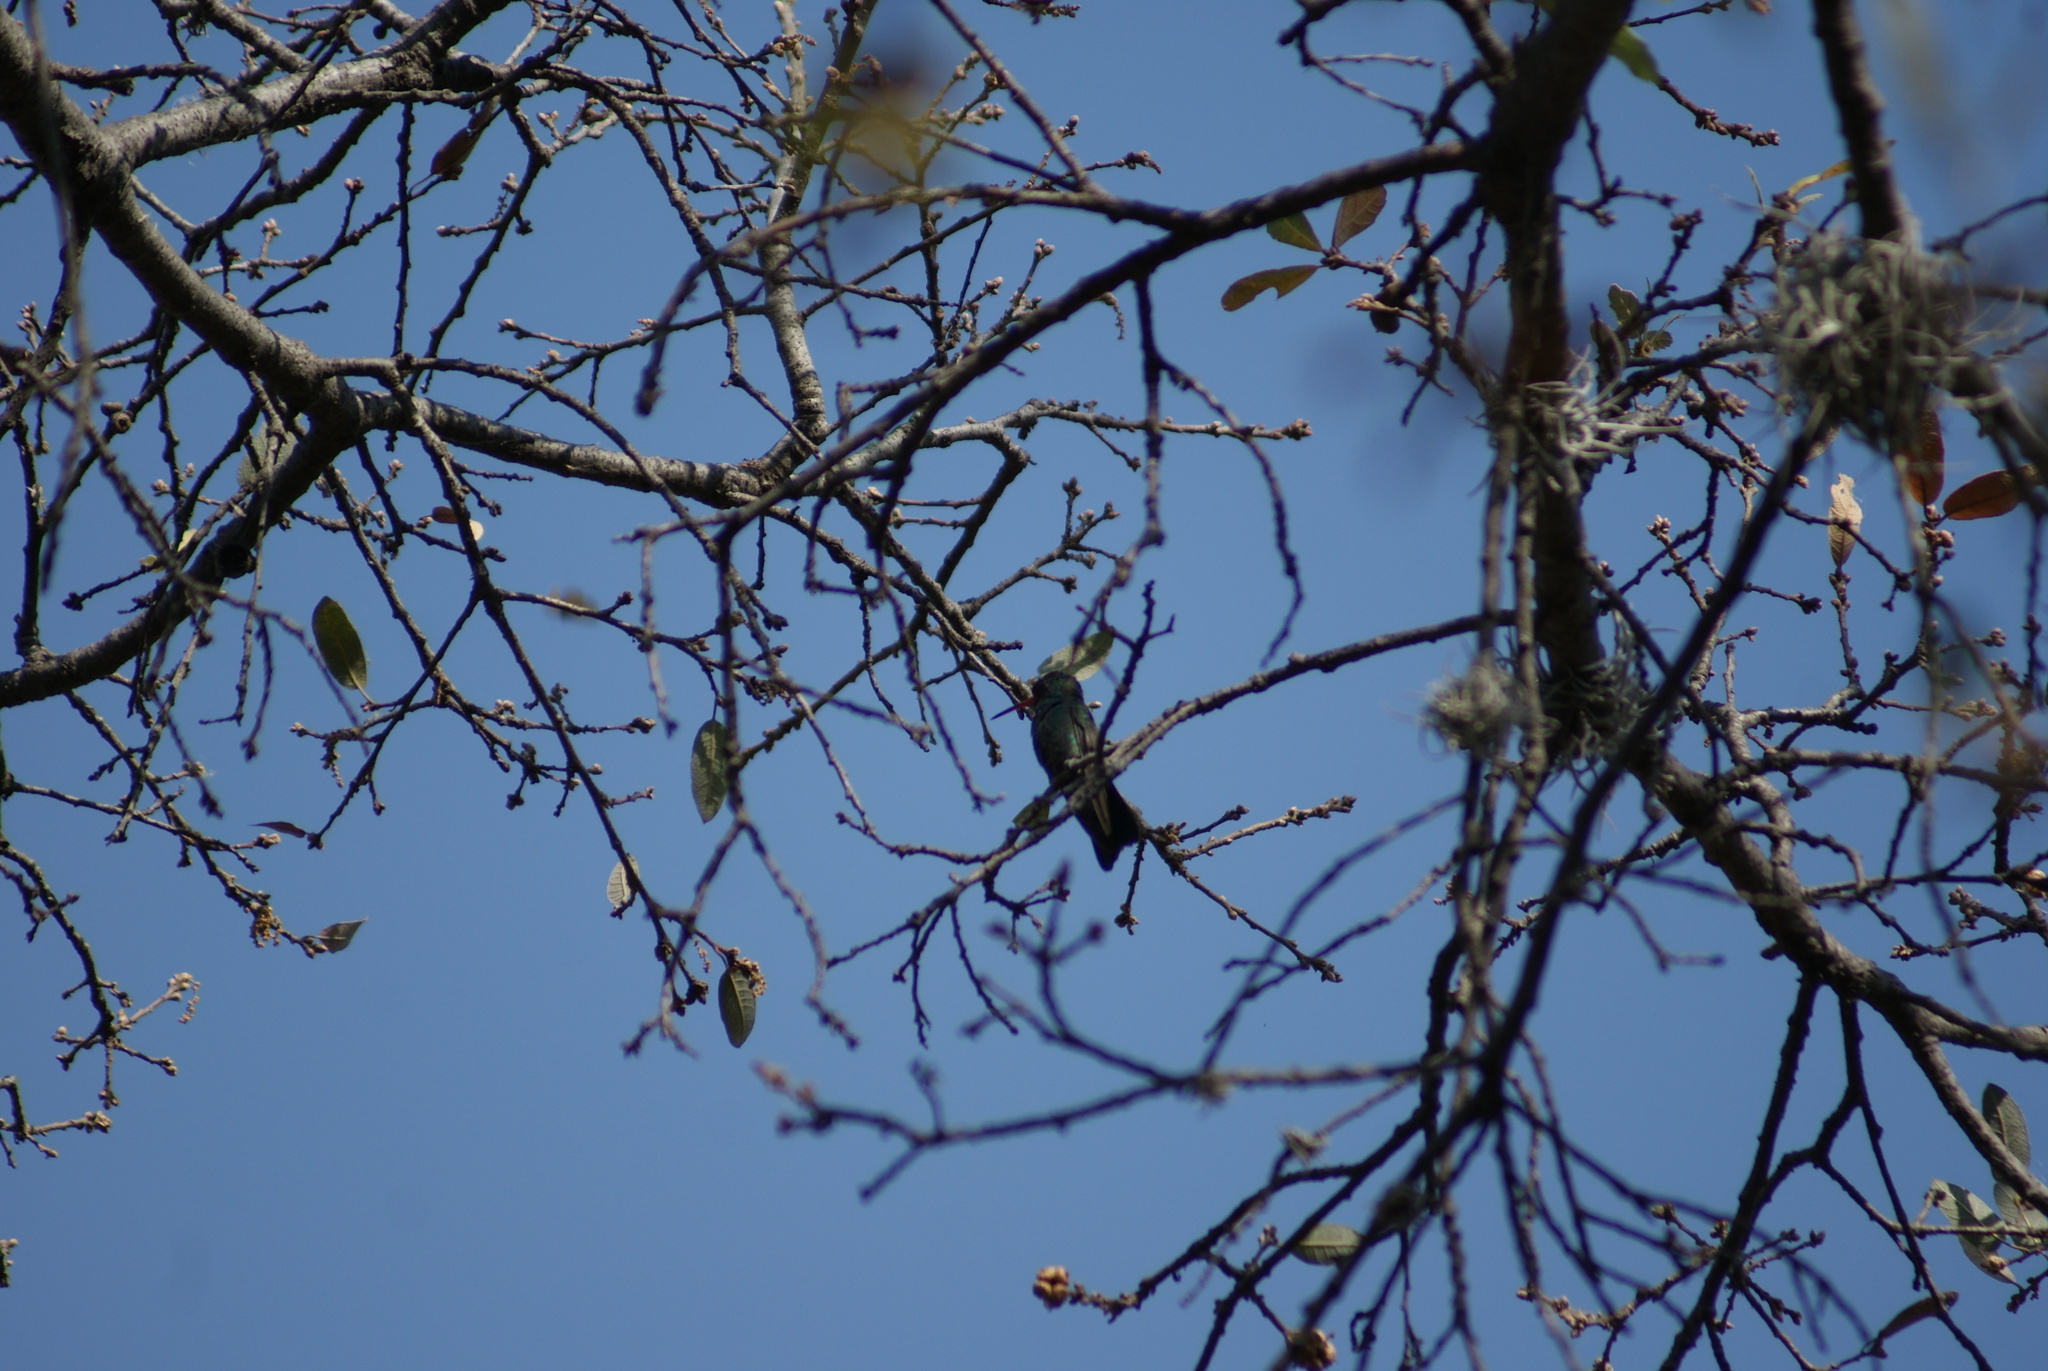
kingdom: Animalia
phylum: Chordata
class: Aves
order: Apodiformes
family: Trochilidae
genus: Cynanthus
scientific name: Cynanthus latirostris
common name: Broad-billed hummingbird
